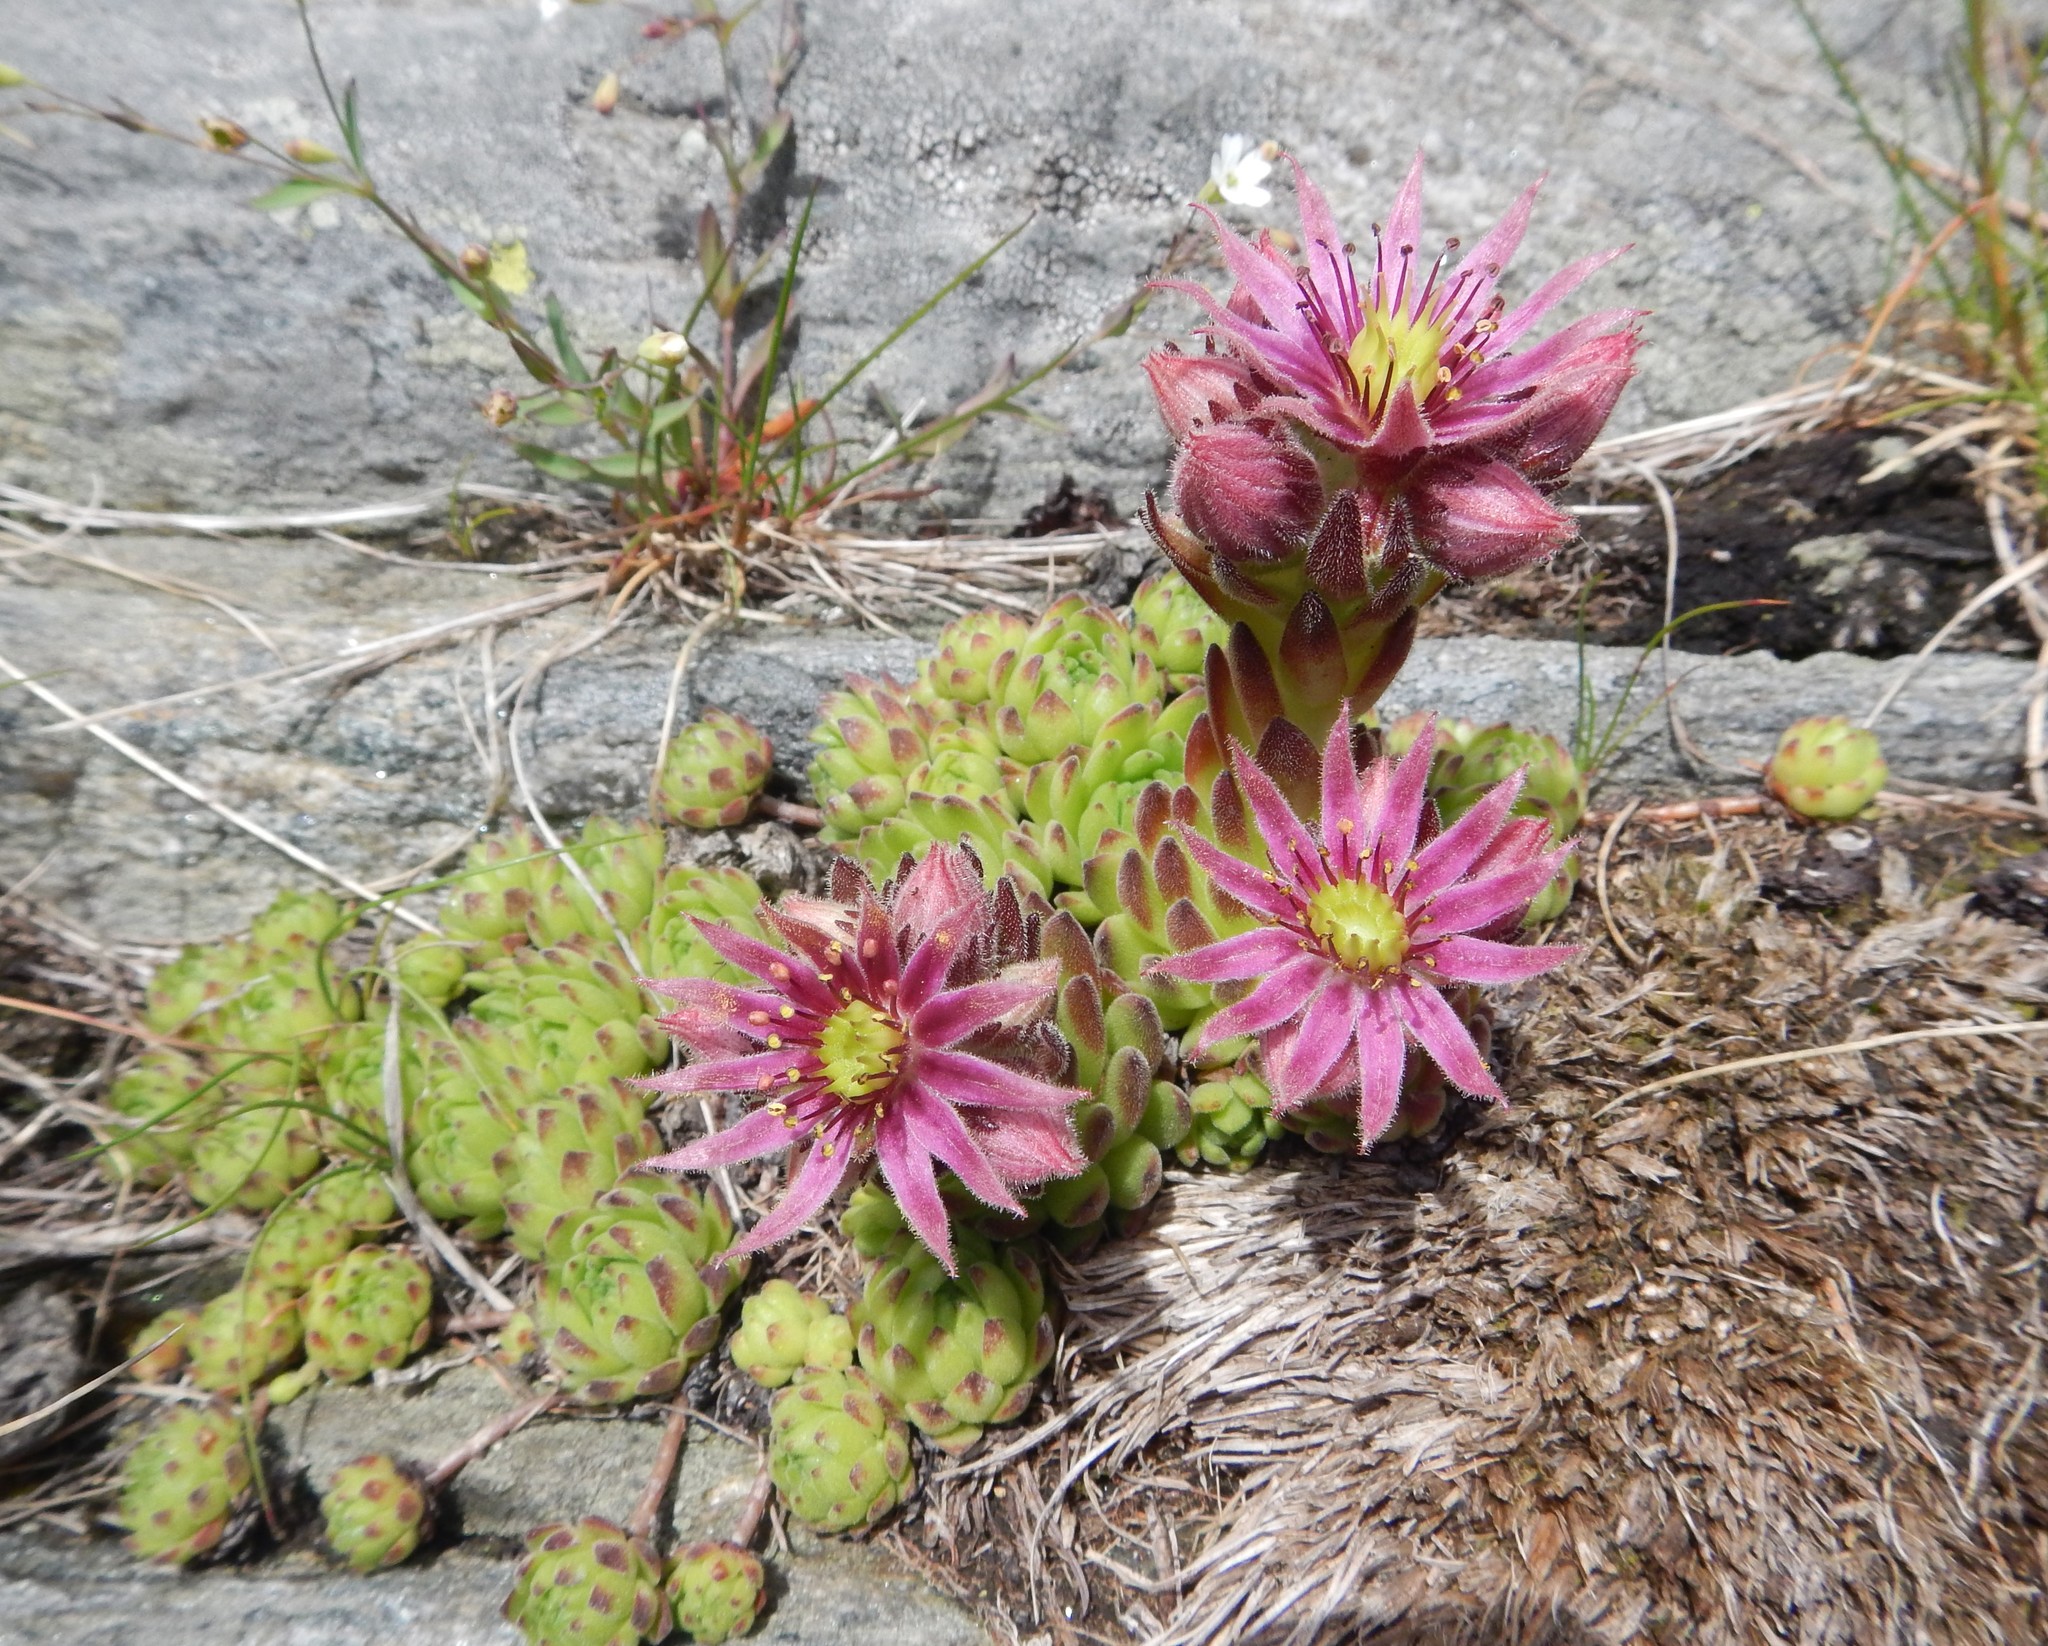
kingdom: Plantae
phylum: Tracheophyta
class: Magnoliopsida
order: Saxifragales
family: Crassulaceae
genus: Sempervivum
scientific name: Sempervivum montanum
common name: Mountain house-leek
